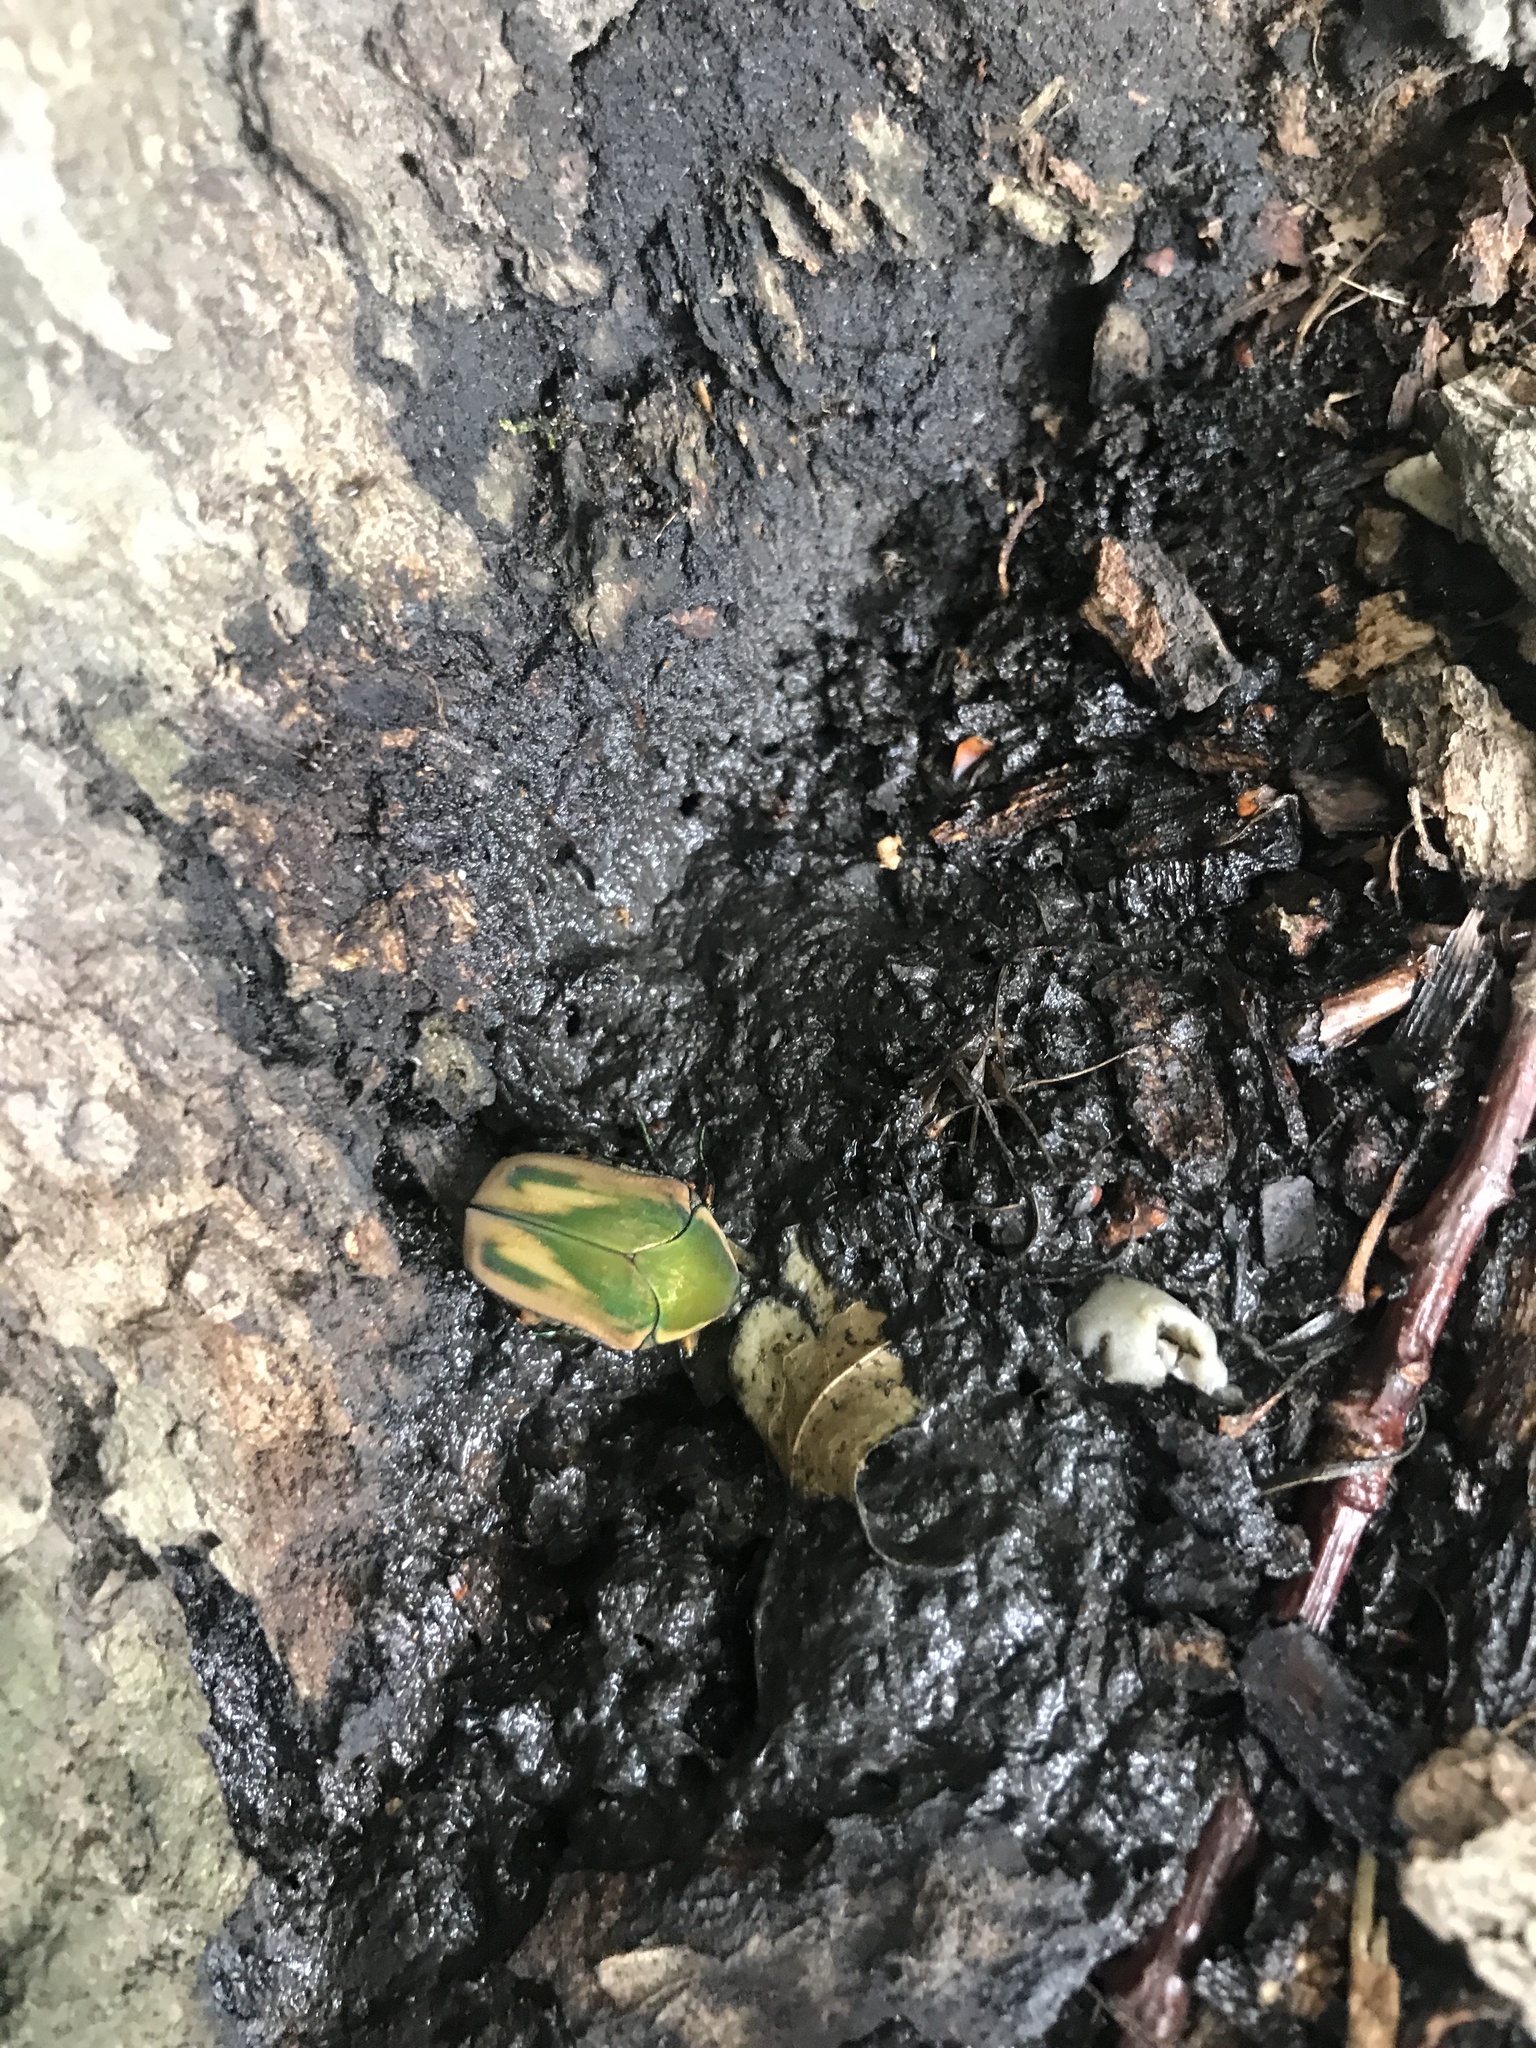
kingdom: Animalia
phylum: Arthropoda
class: Insecta
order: Coleoptera
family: Scarabaeidae
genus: Cotinis
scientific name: Cotinis nitida
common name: Common green june beetle
